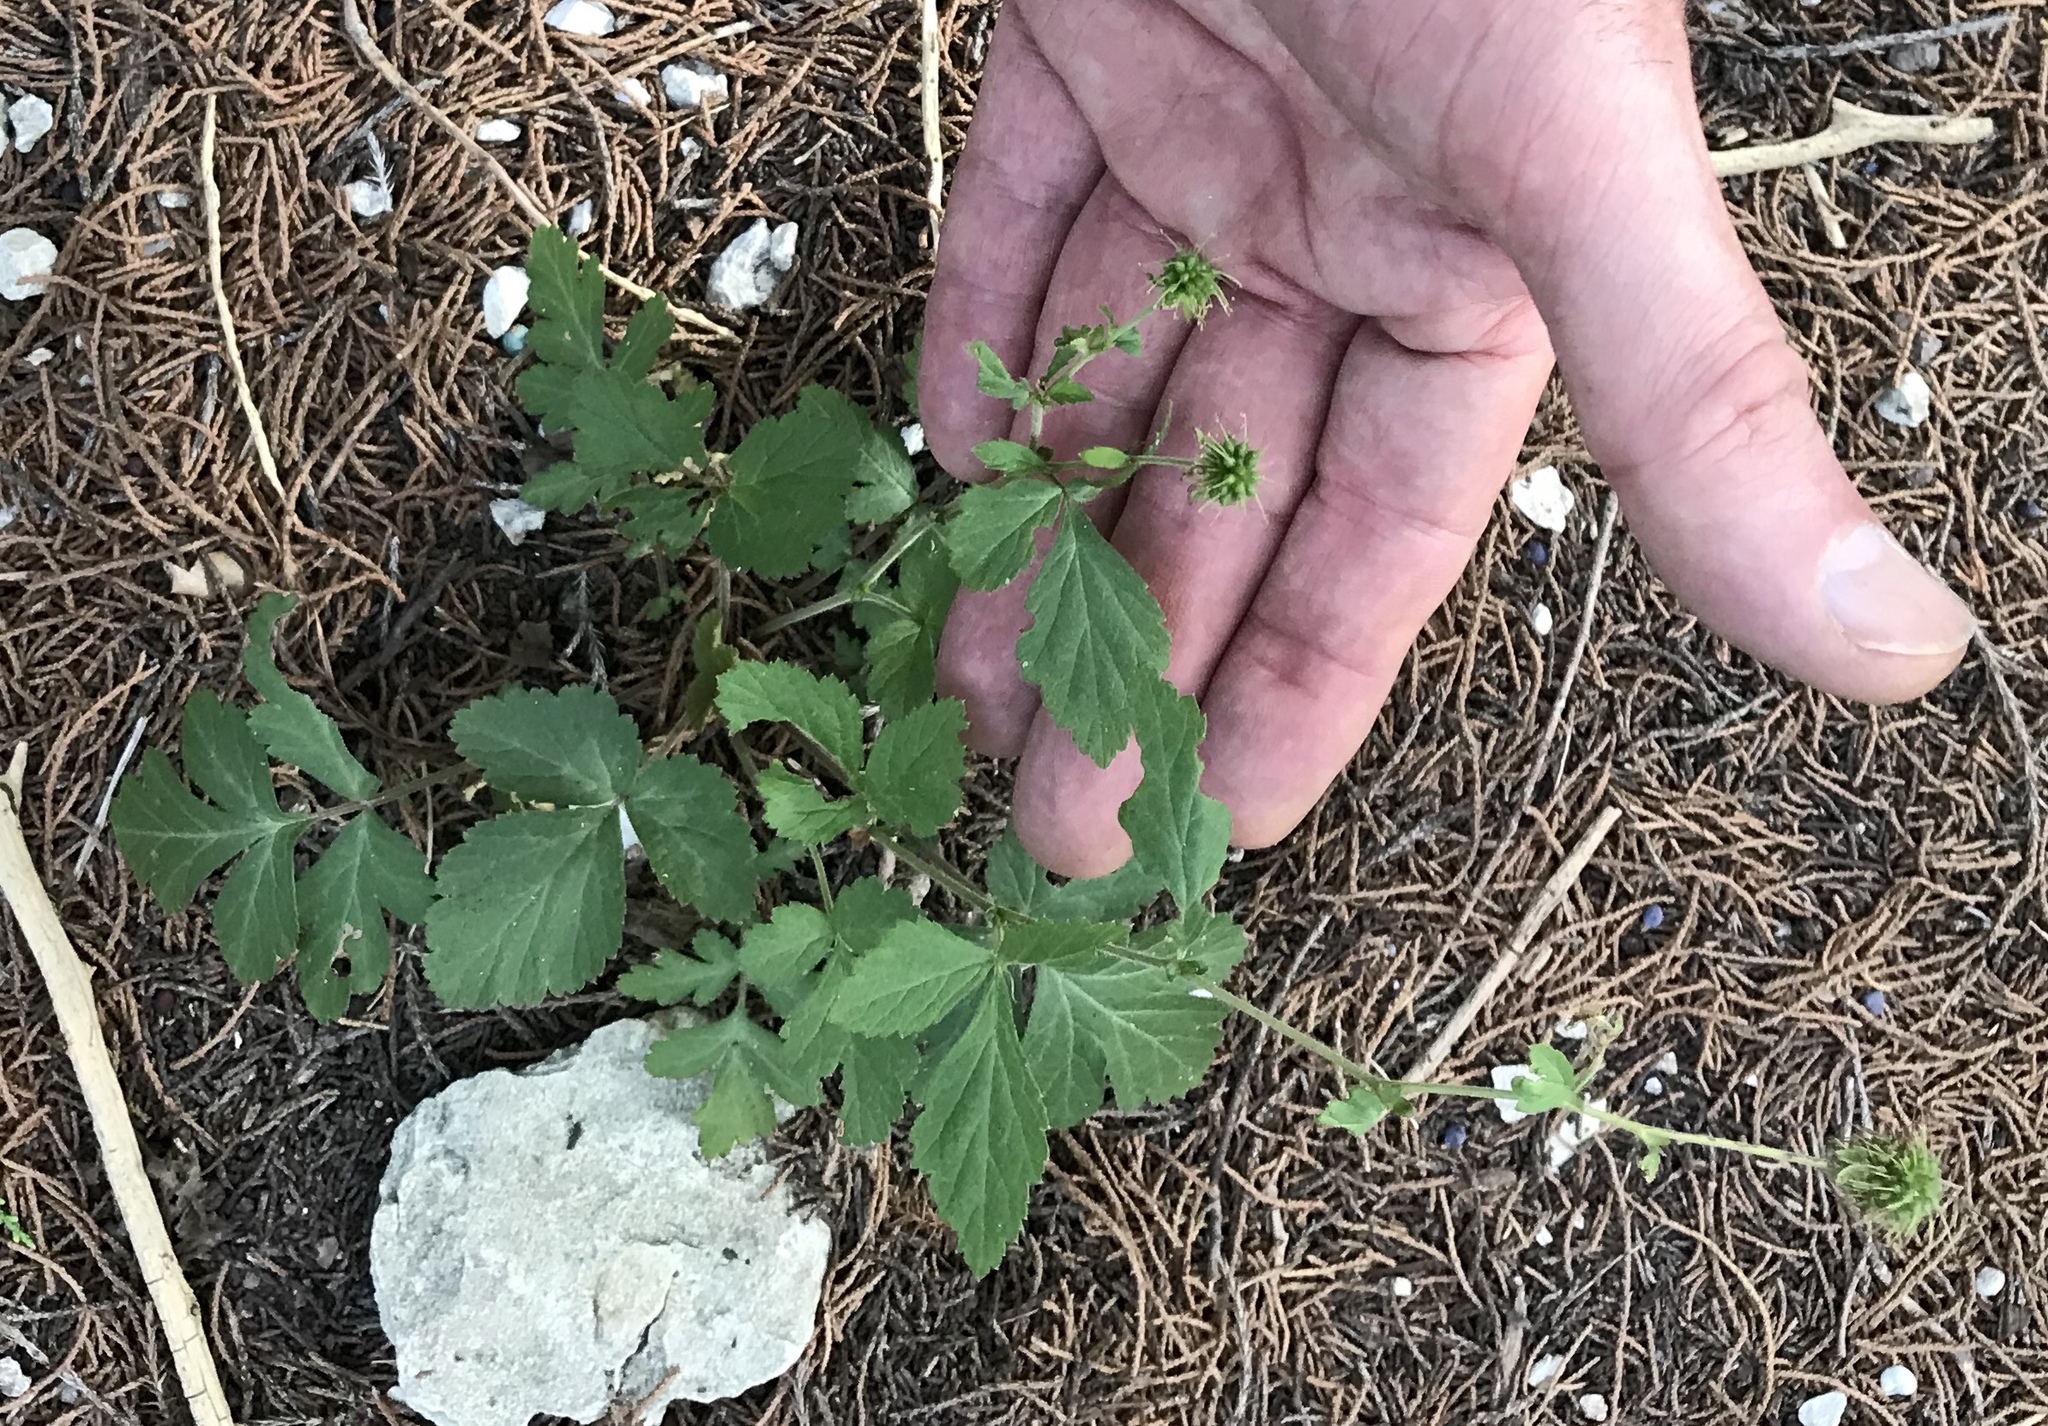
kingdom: Plantae
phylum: Tracheophyta
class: Magnoliopsida
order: Rosales
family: Rosaceae
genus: Geum
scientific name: Geum canadense
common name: White avens
